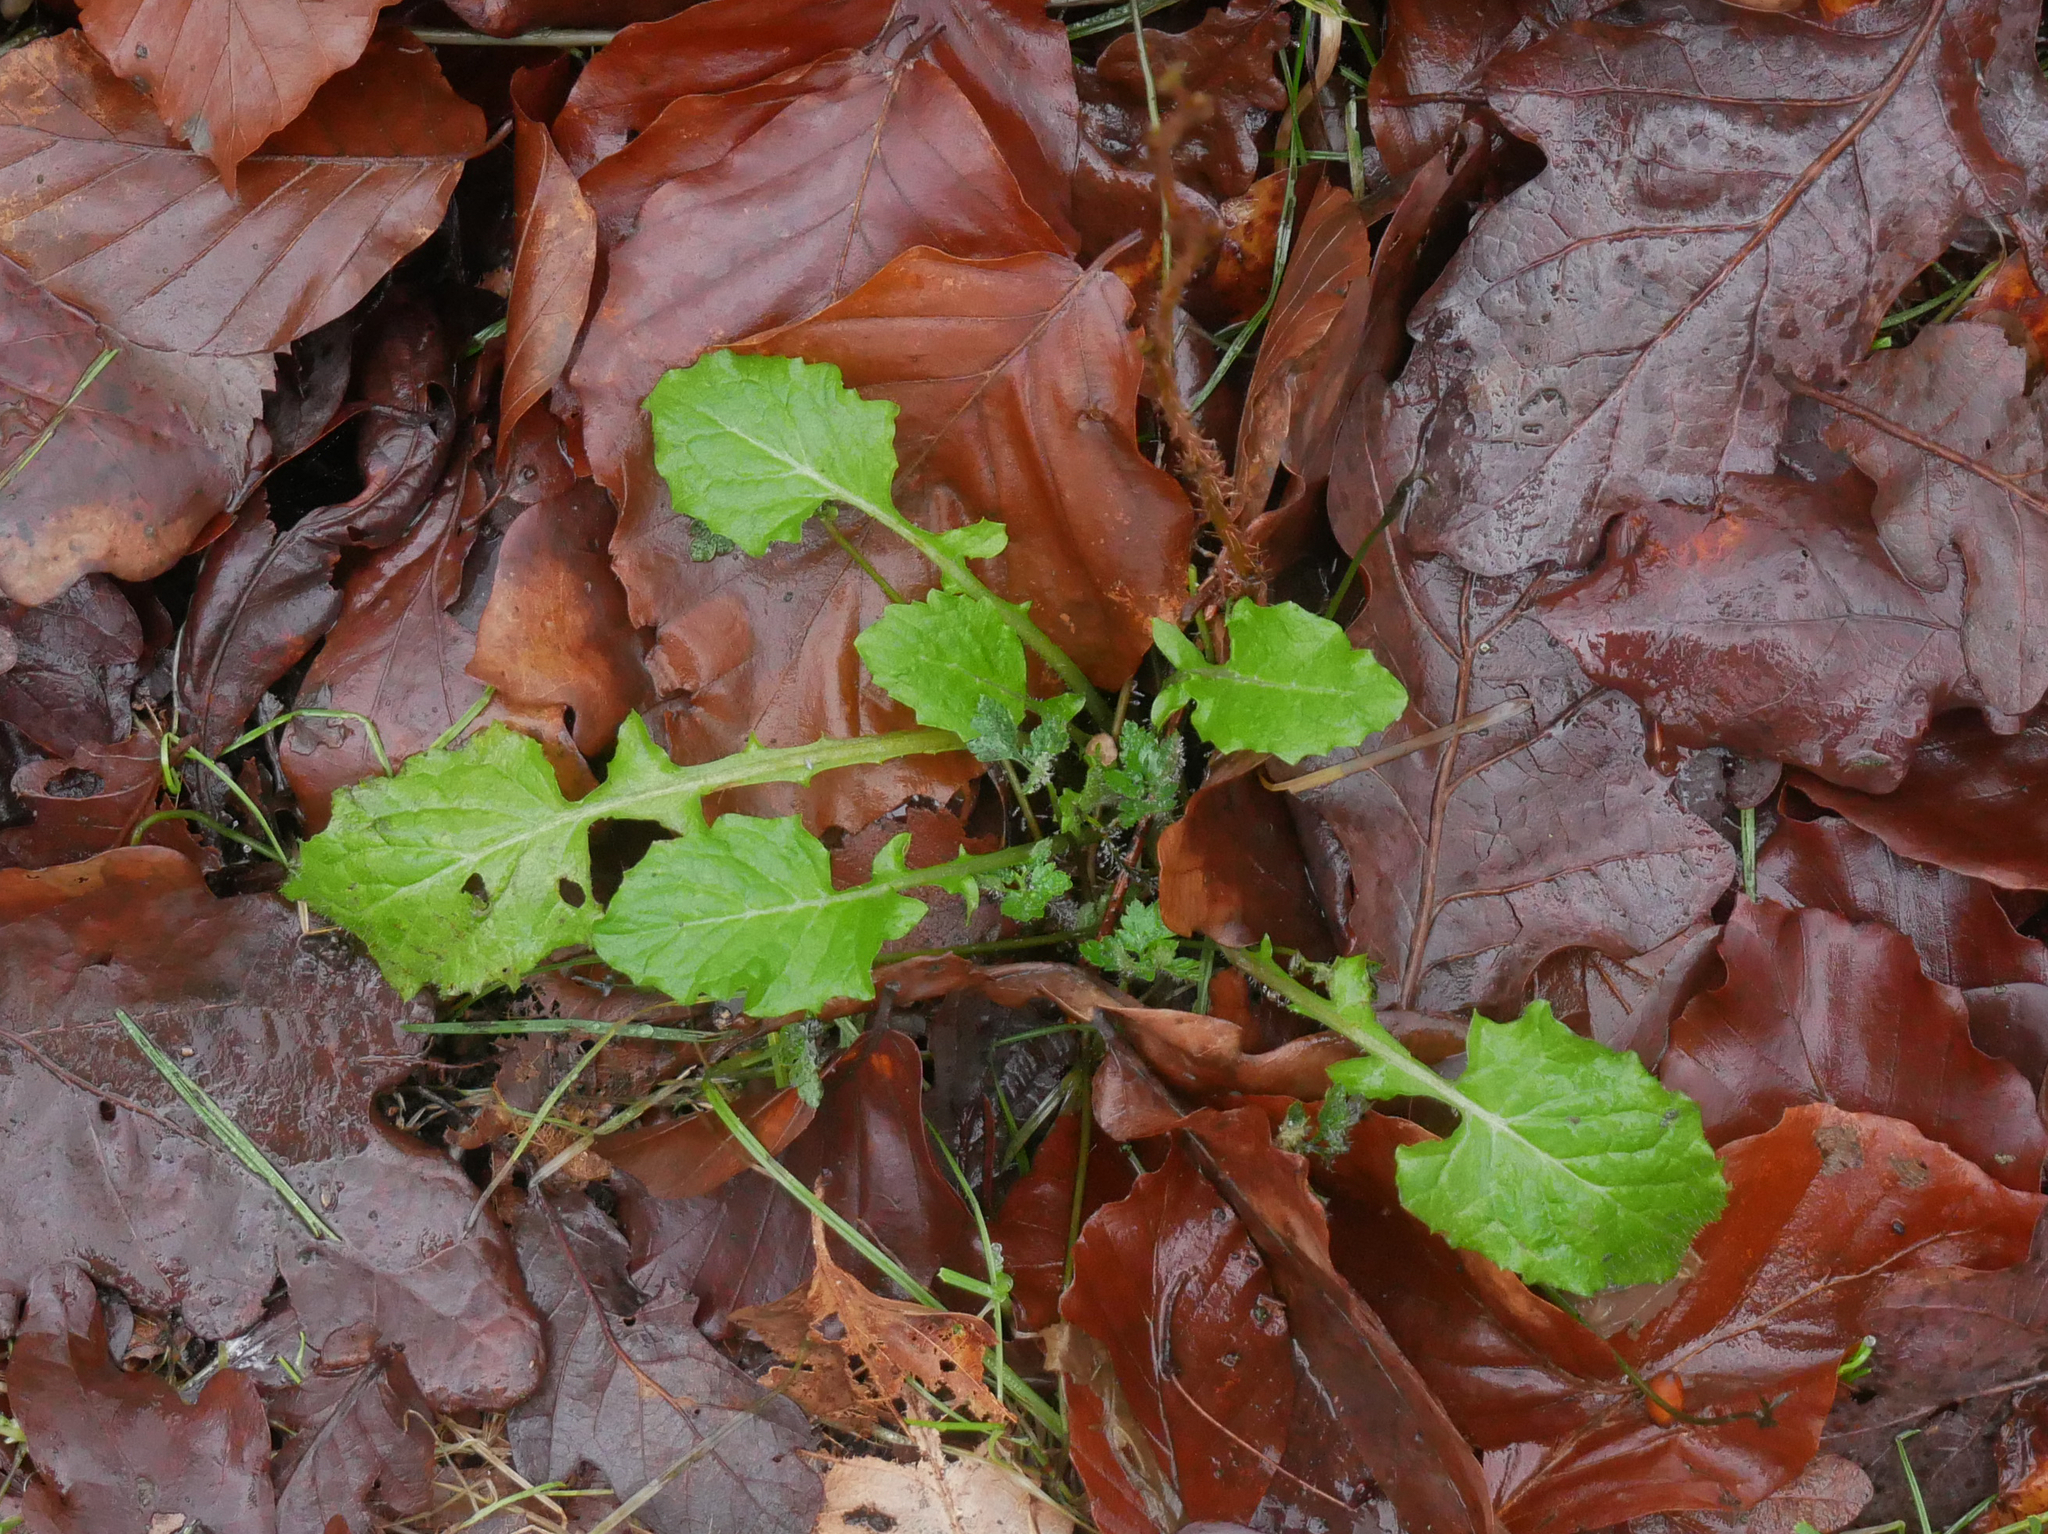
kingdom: Plantae
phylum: Tracheophyta
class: Magnoliopsida
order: Asterales
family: Asteraceae
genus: Lapsana
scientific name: Lapsana communis
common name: Nipplewort
